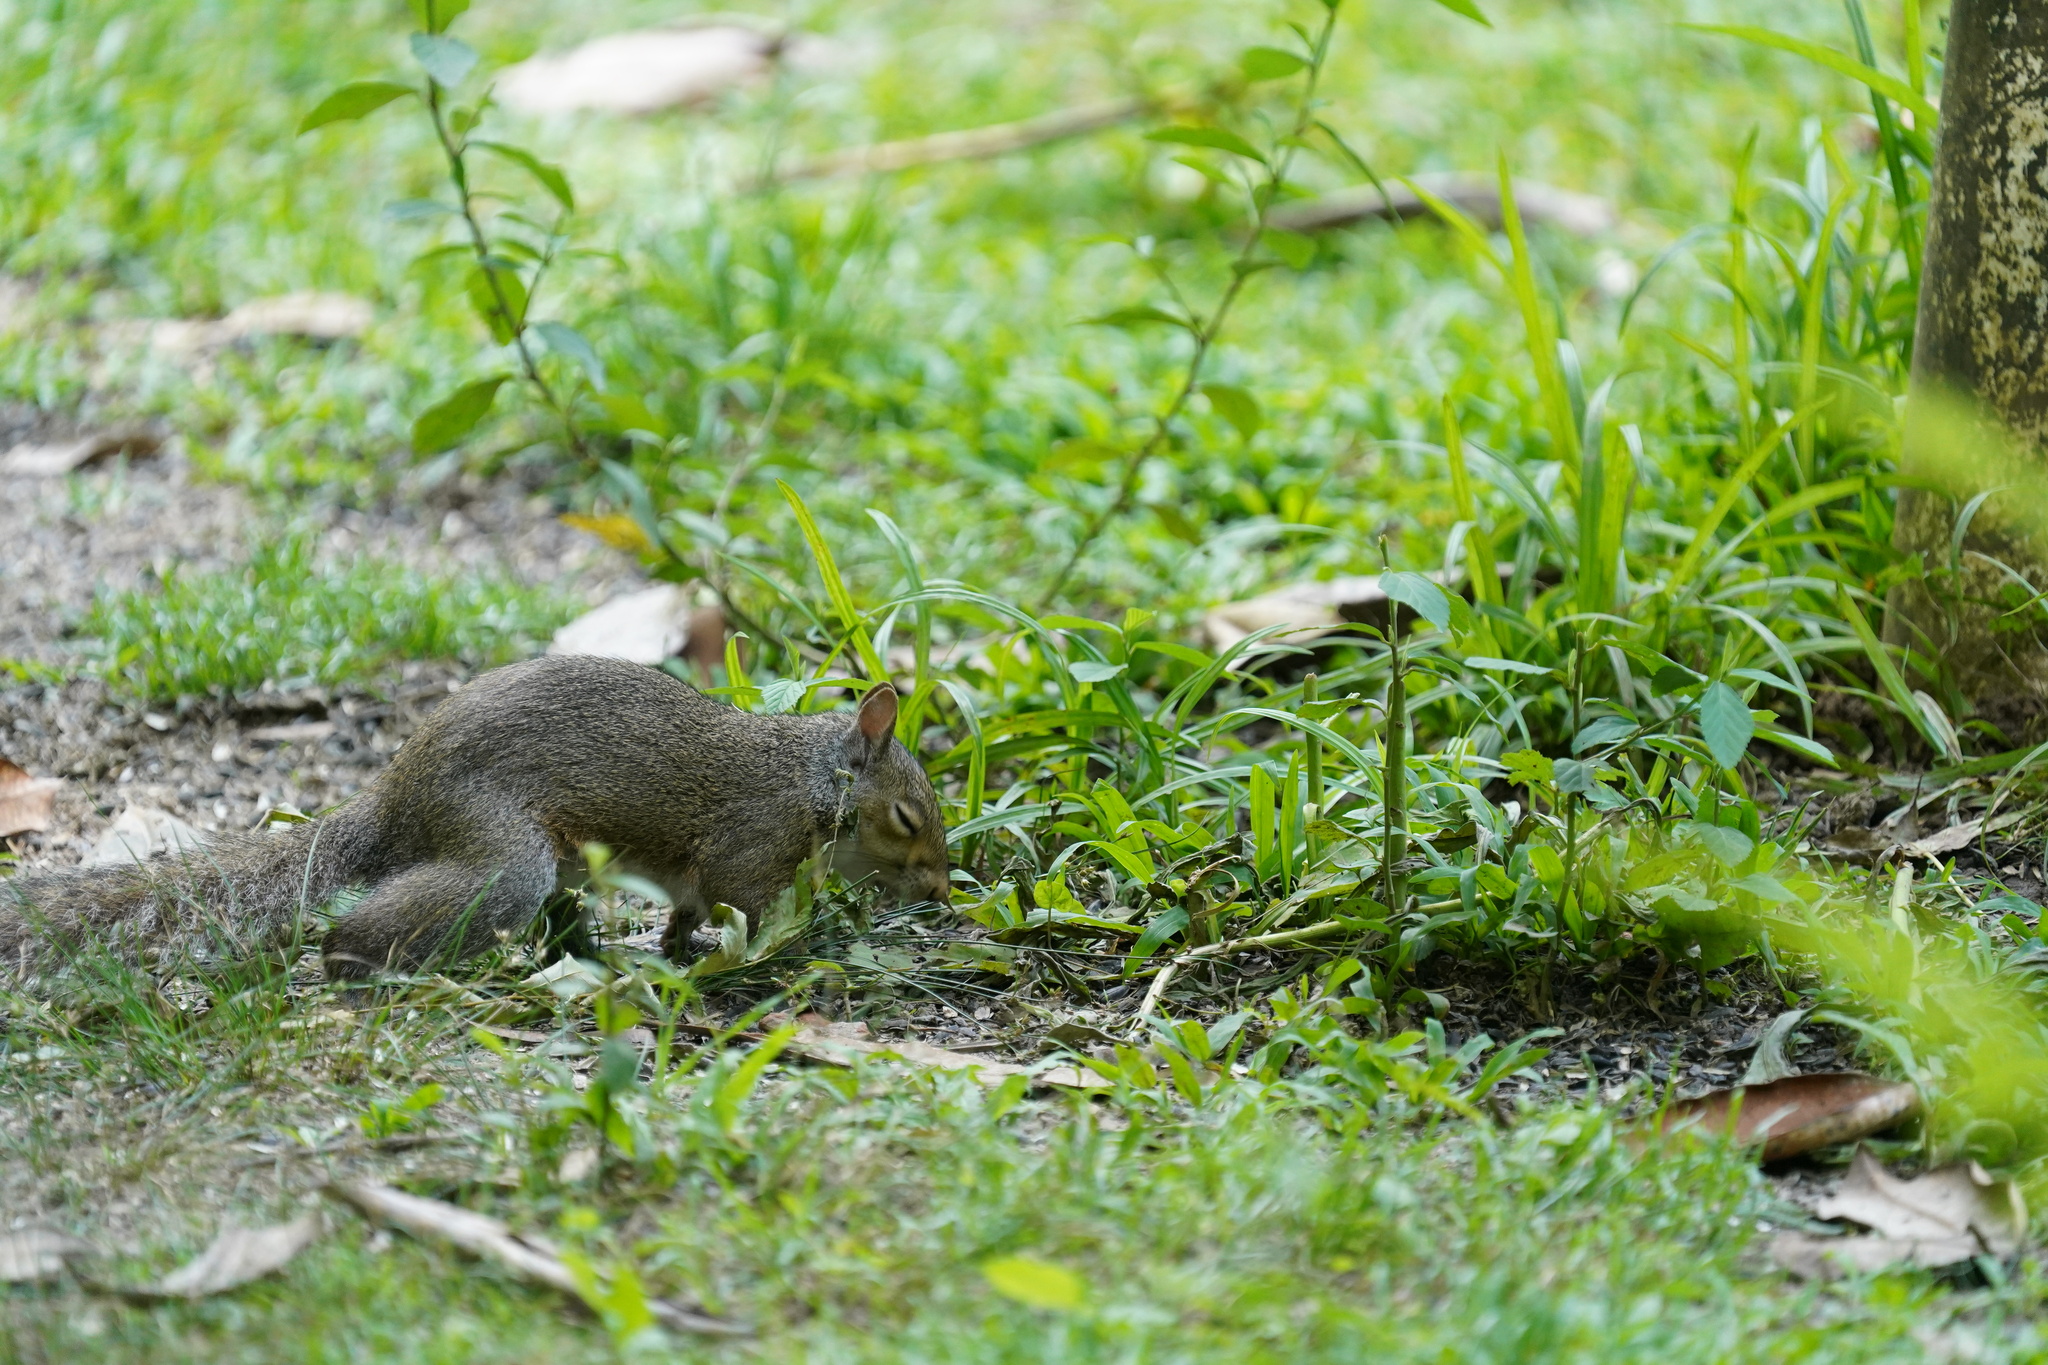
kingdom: Animalia
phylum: Chordata
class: Mammalia
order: Rodentia
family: Sciuridae
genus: Sciurus
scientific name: Sciurus carolinensis
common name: Eastern gray squirrel
